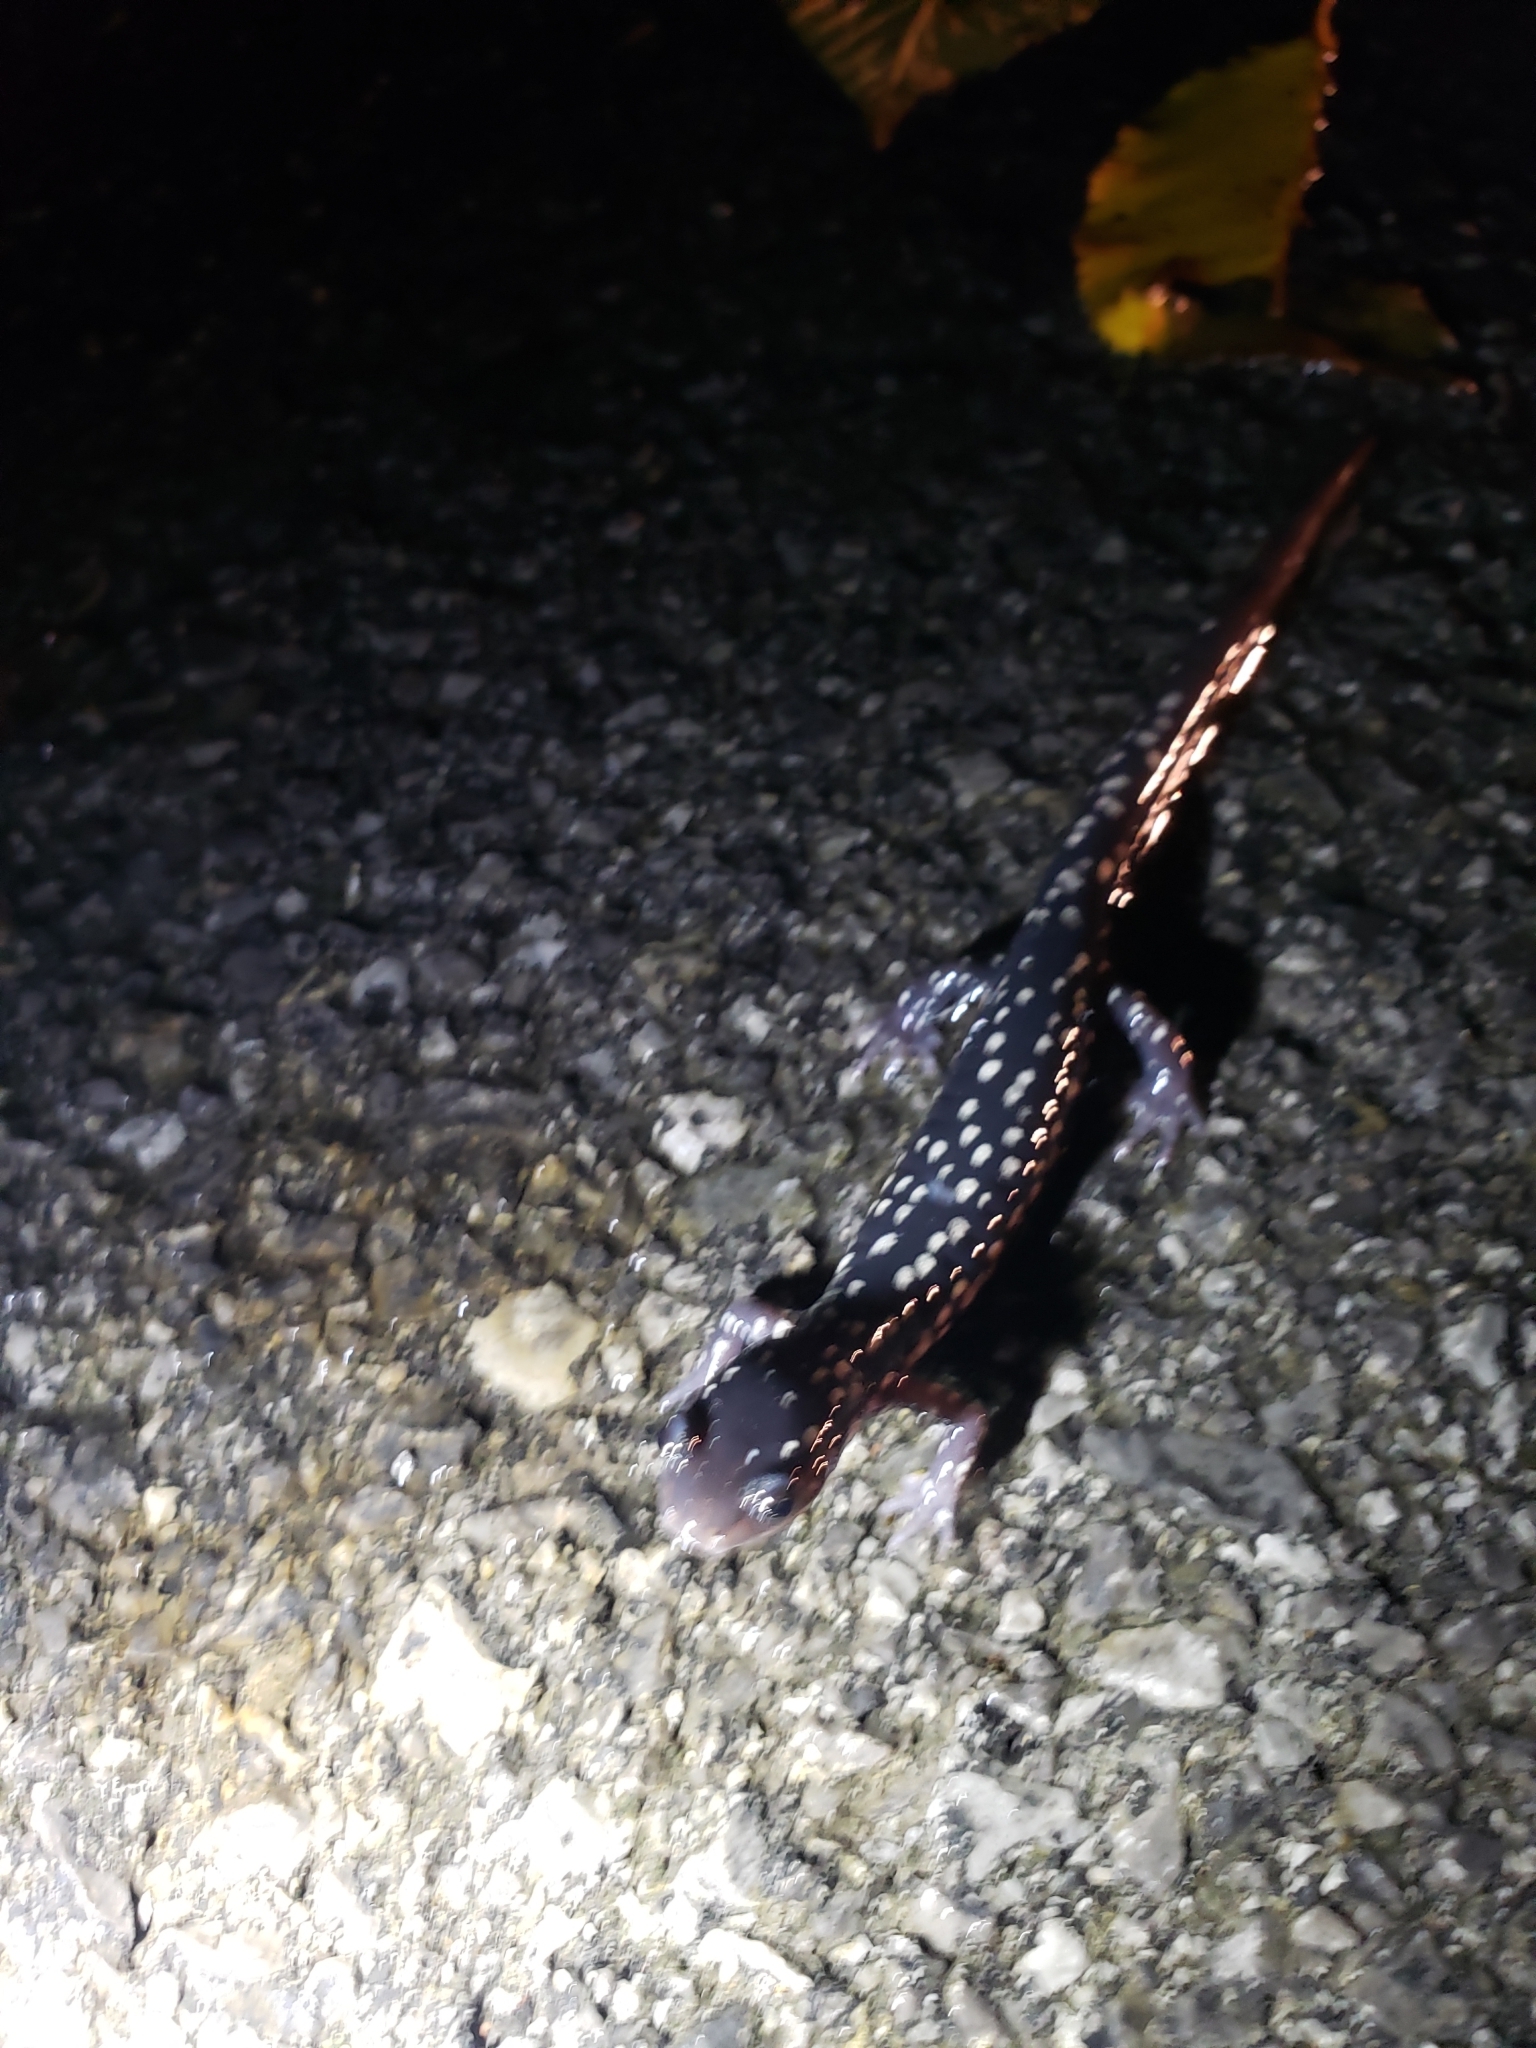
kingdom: Animalia
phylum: Chordata
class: Amphibia
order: Caudata
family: Plethodontidae
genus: Plethodon
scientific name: Plethodon glutinosus
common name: Northern slimy salamander
